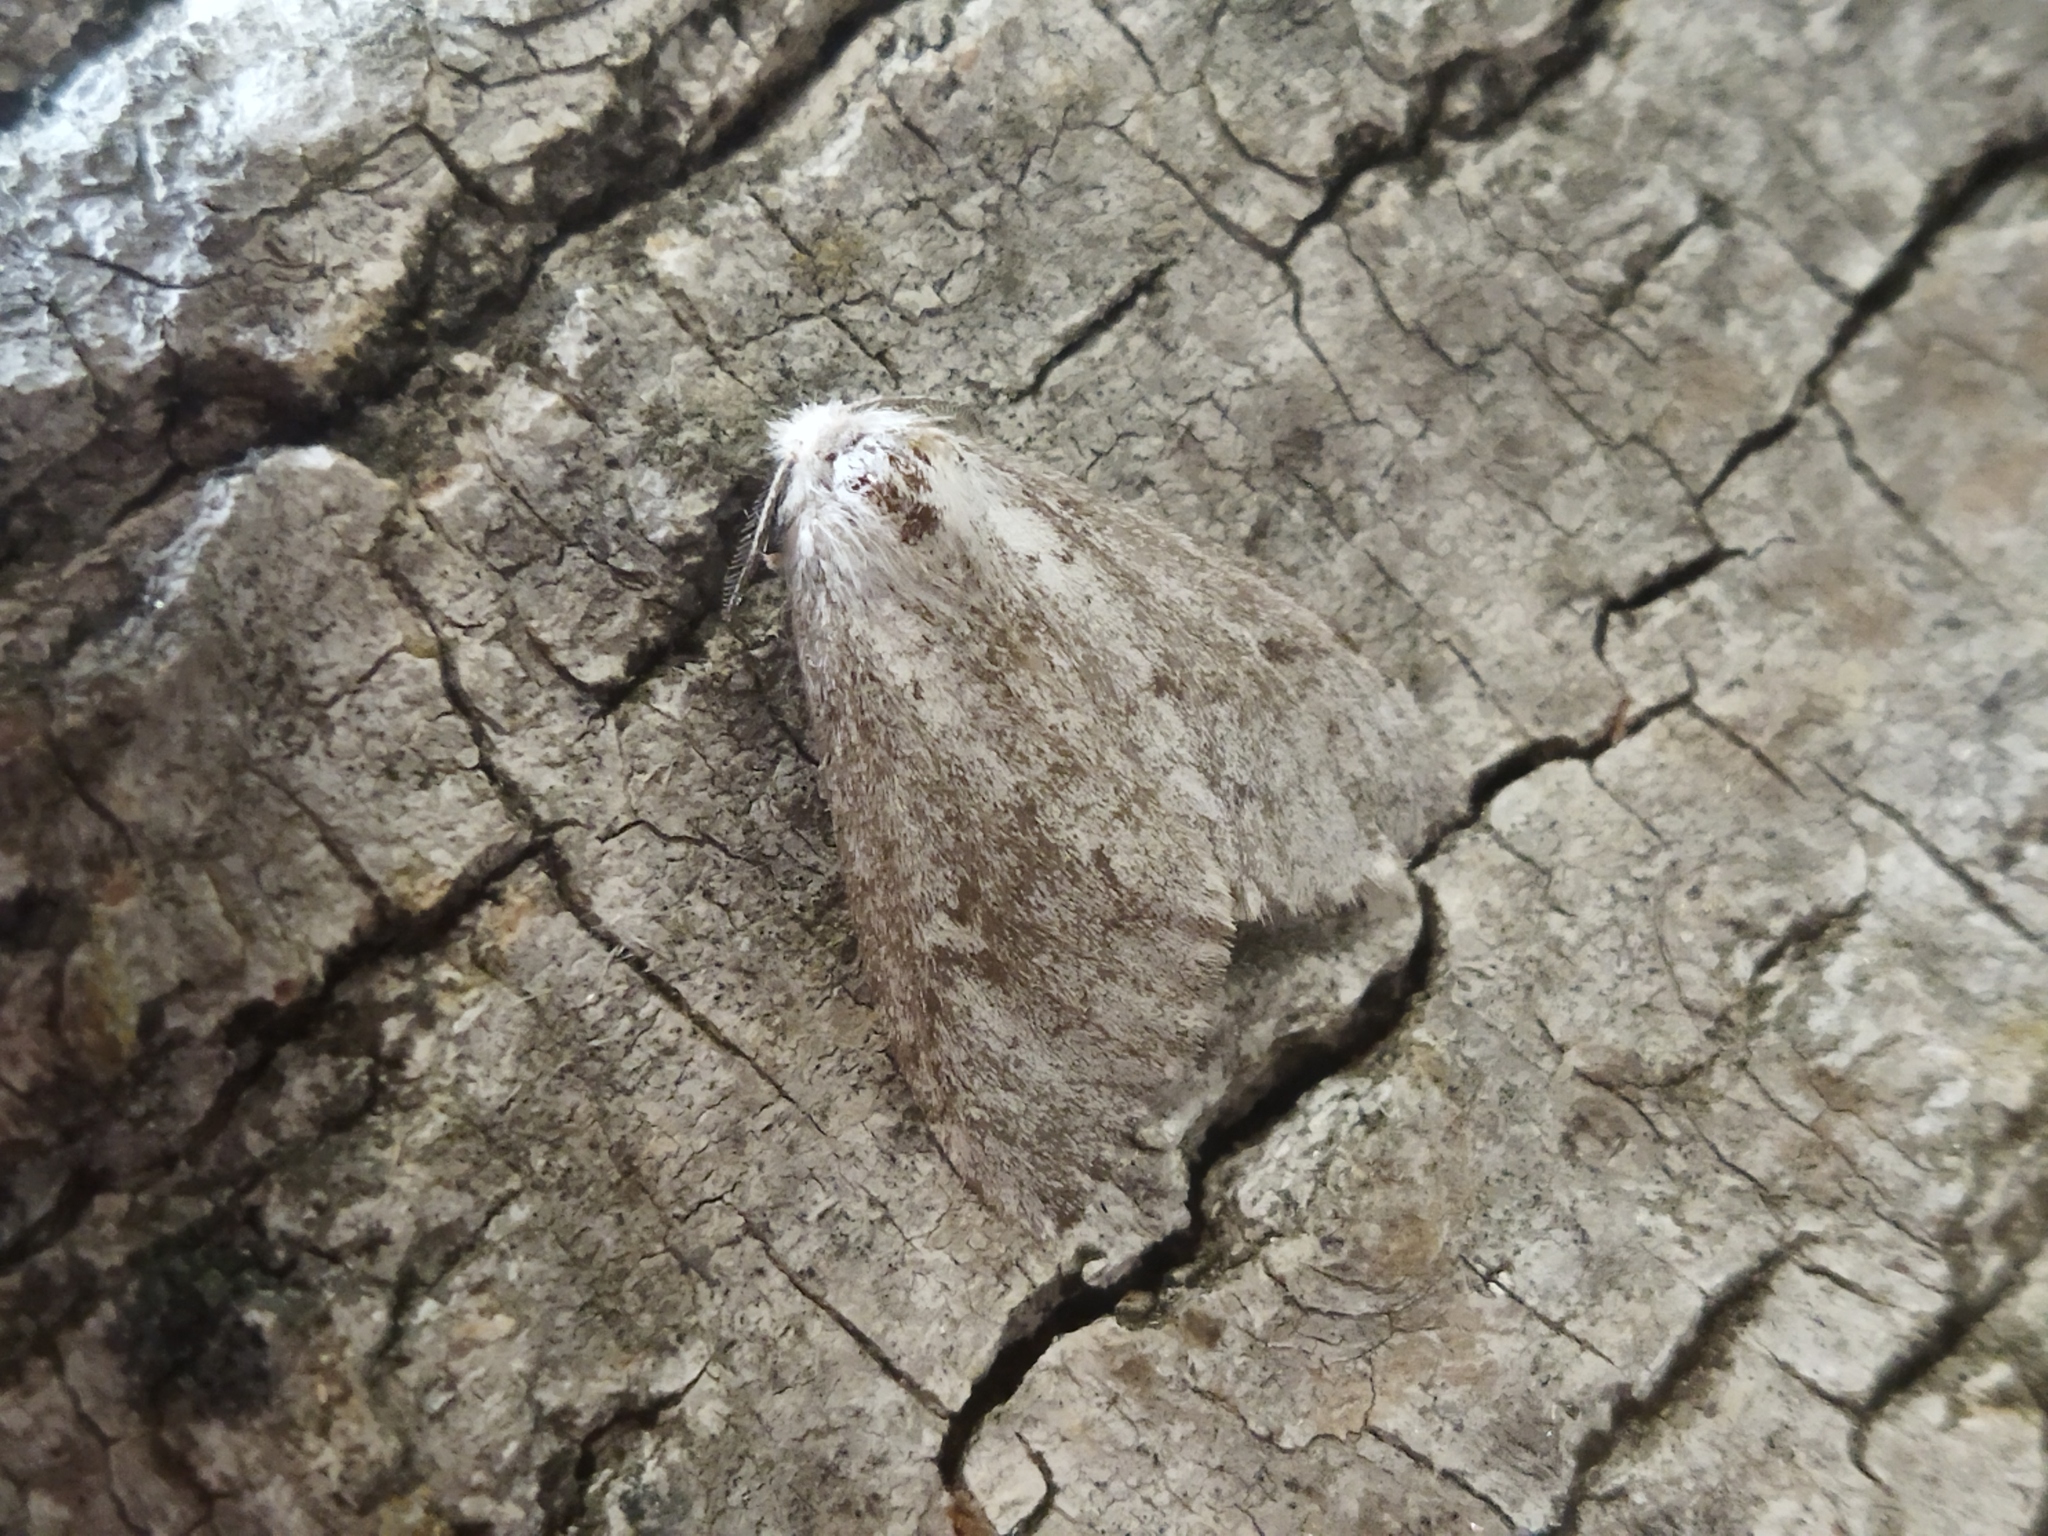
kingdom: Animalia
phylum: Arthropoda
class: Insecta
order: Lepidoptera
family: Erebidae
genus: Ocneria
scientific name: Ocneria
